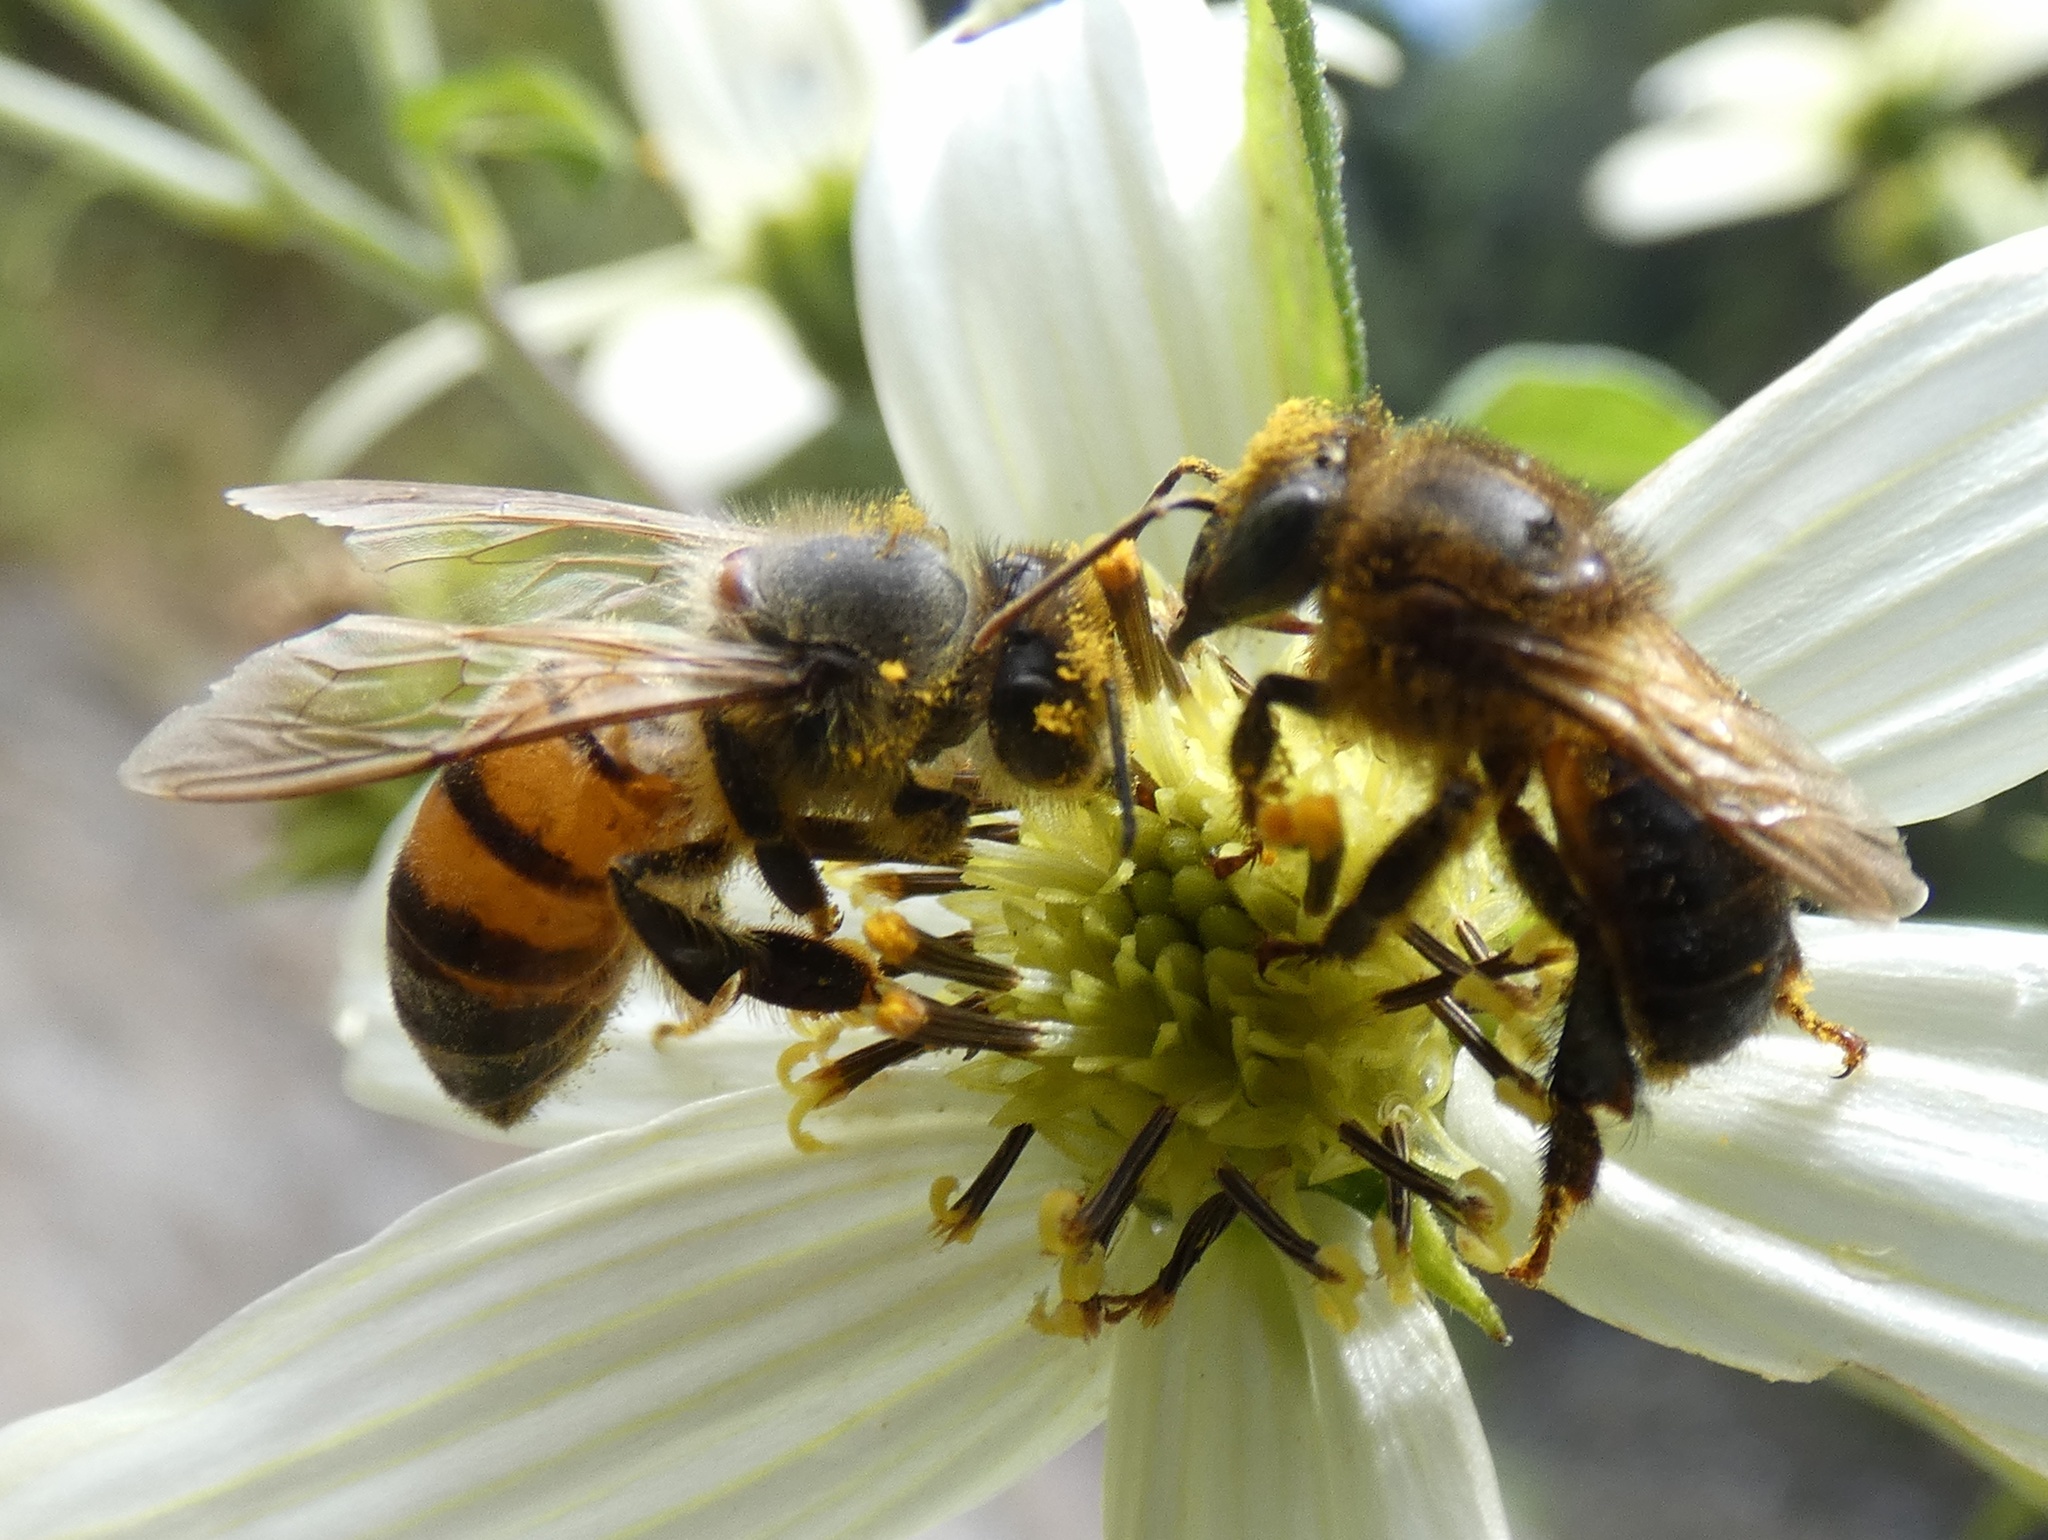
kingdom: Animalia
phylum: Arthropoda
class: Insecta
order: Hymenoptera
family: Apidae
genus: Apis
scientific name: Apis mellifera
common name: Honey bee
